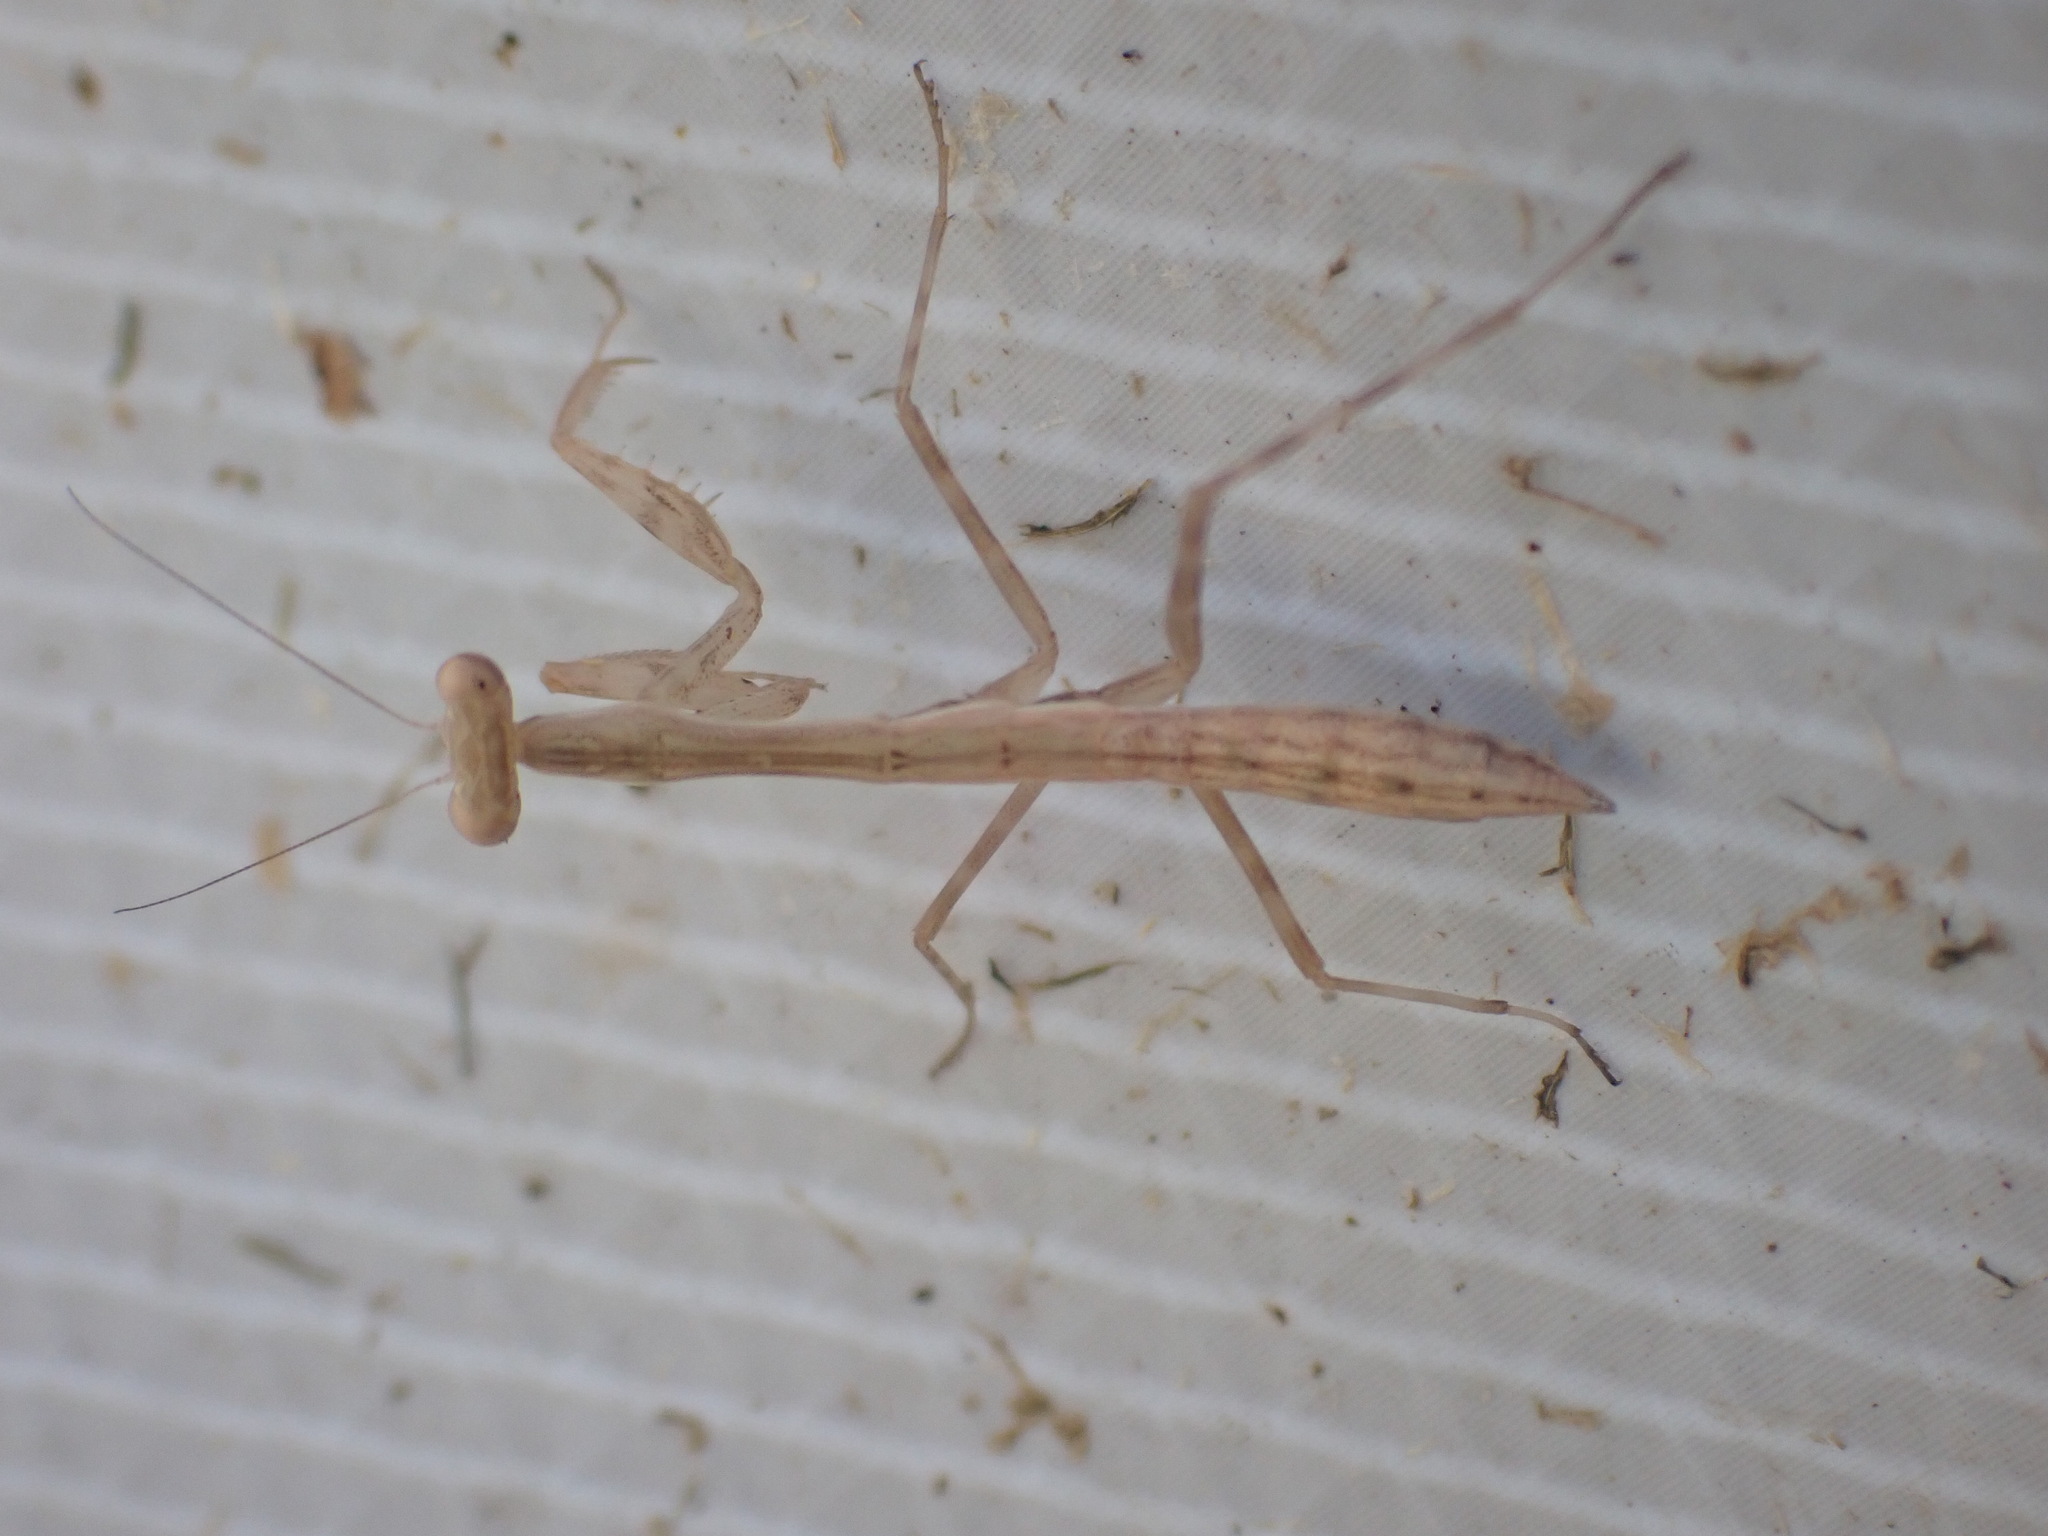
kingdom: Animalia
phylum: Arthropoda
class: Insecta
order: Mantodea
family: Miomantidae
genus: Miomantis
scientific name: Miomantis caffra
